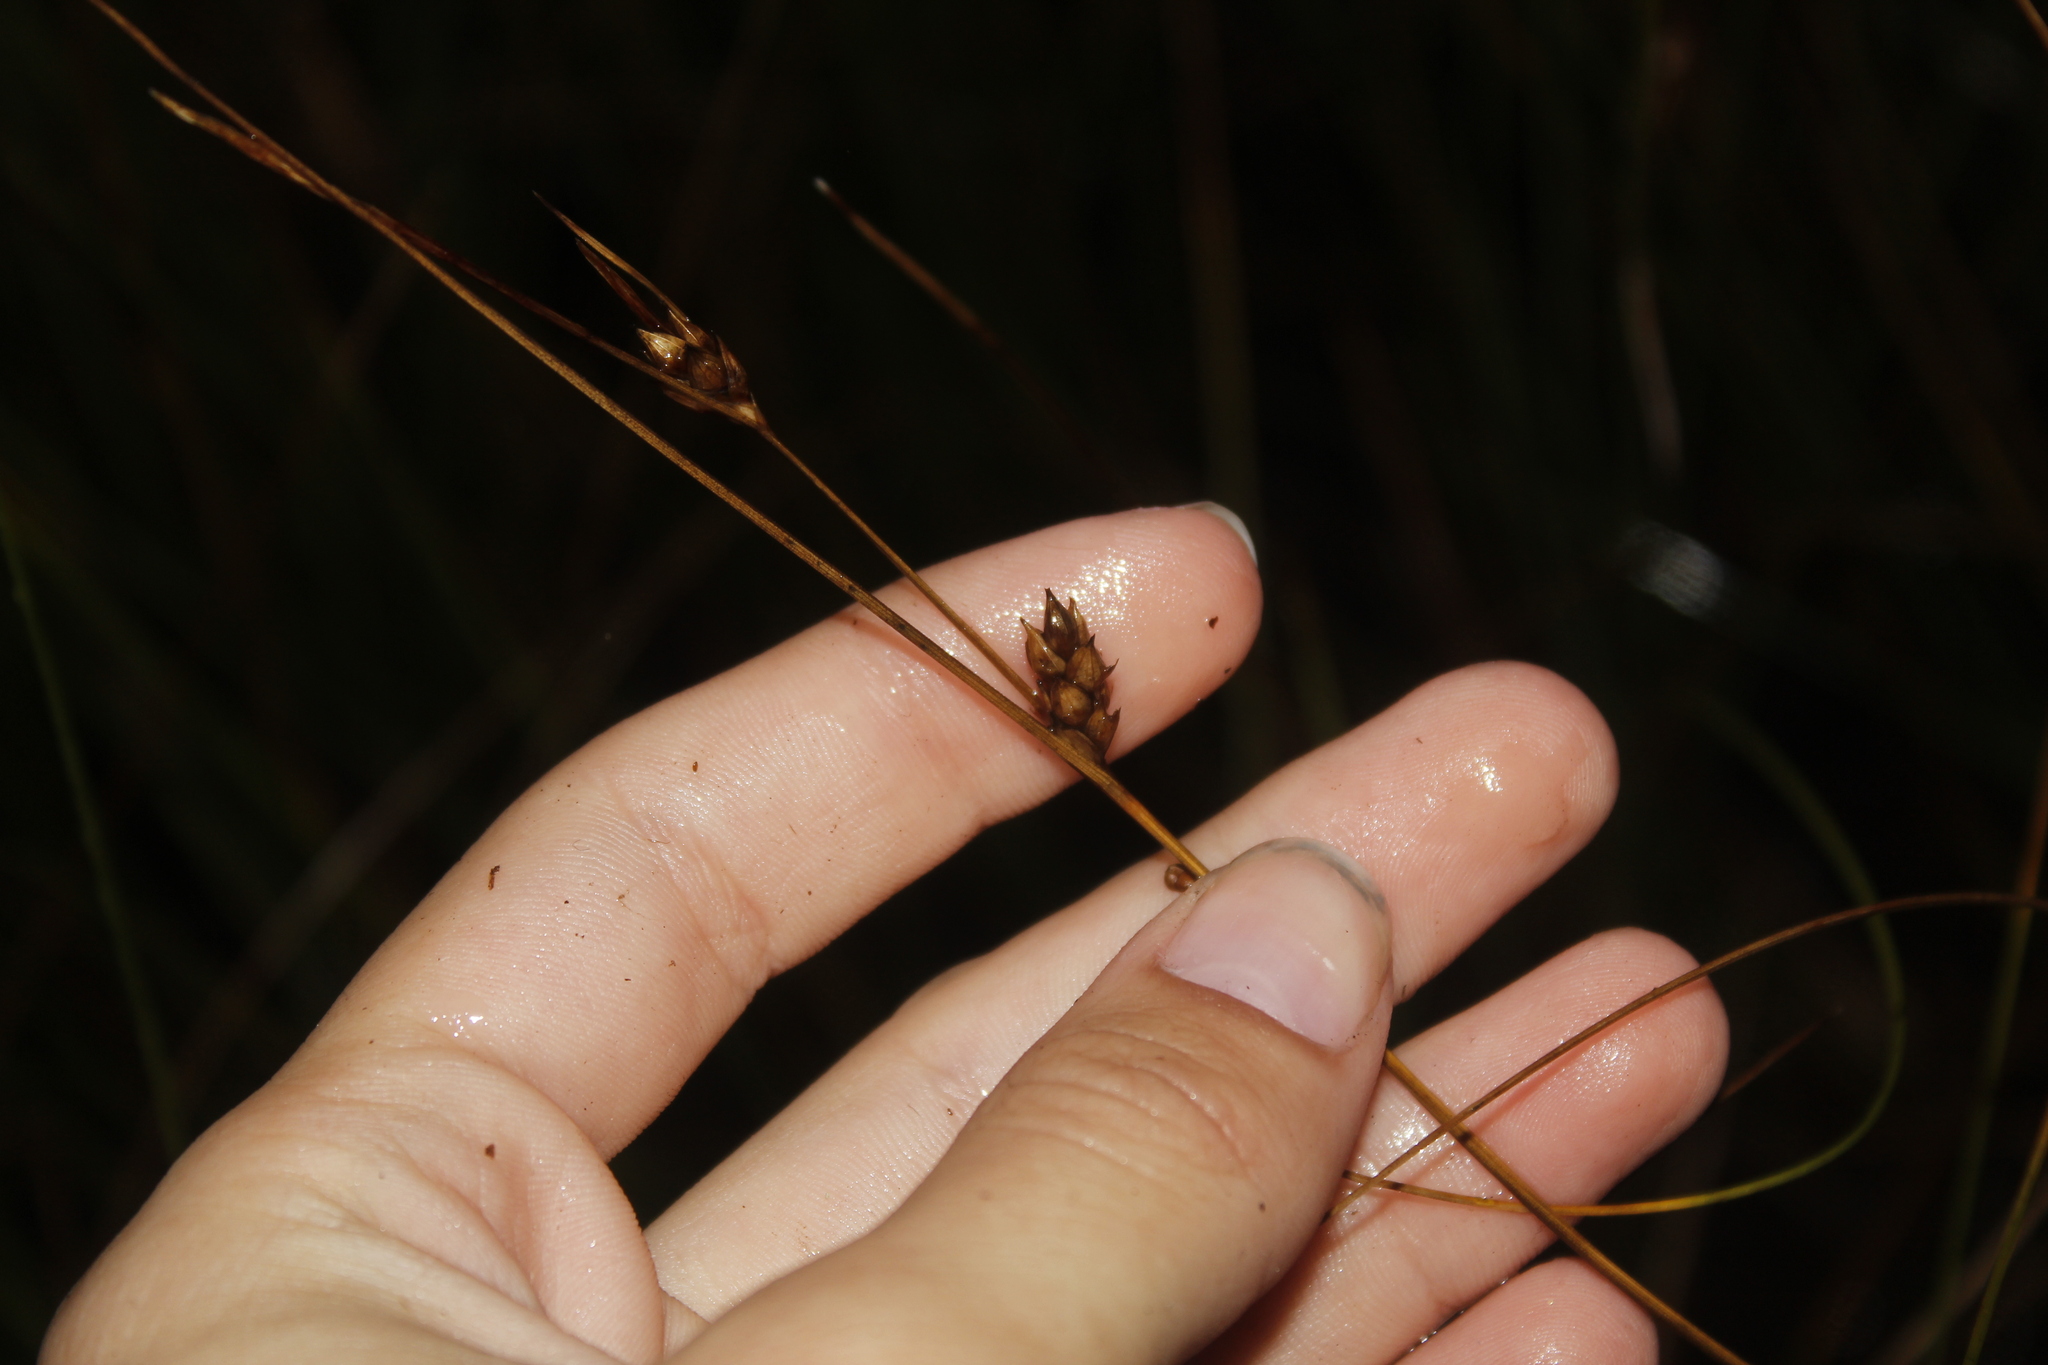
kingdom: Plantae
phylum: Tracheophyta
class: Liliopsida
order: Poales
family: Cyperaceae
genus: Carex
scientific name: Carex oligosperma
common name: Few-seed sedge
